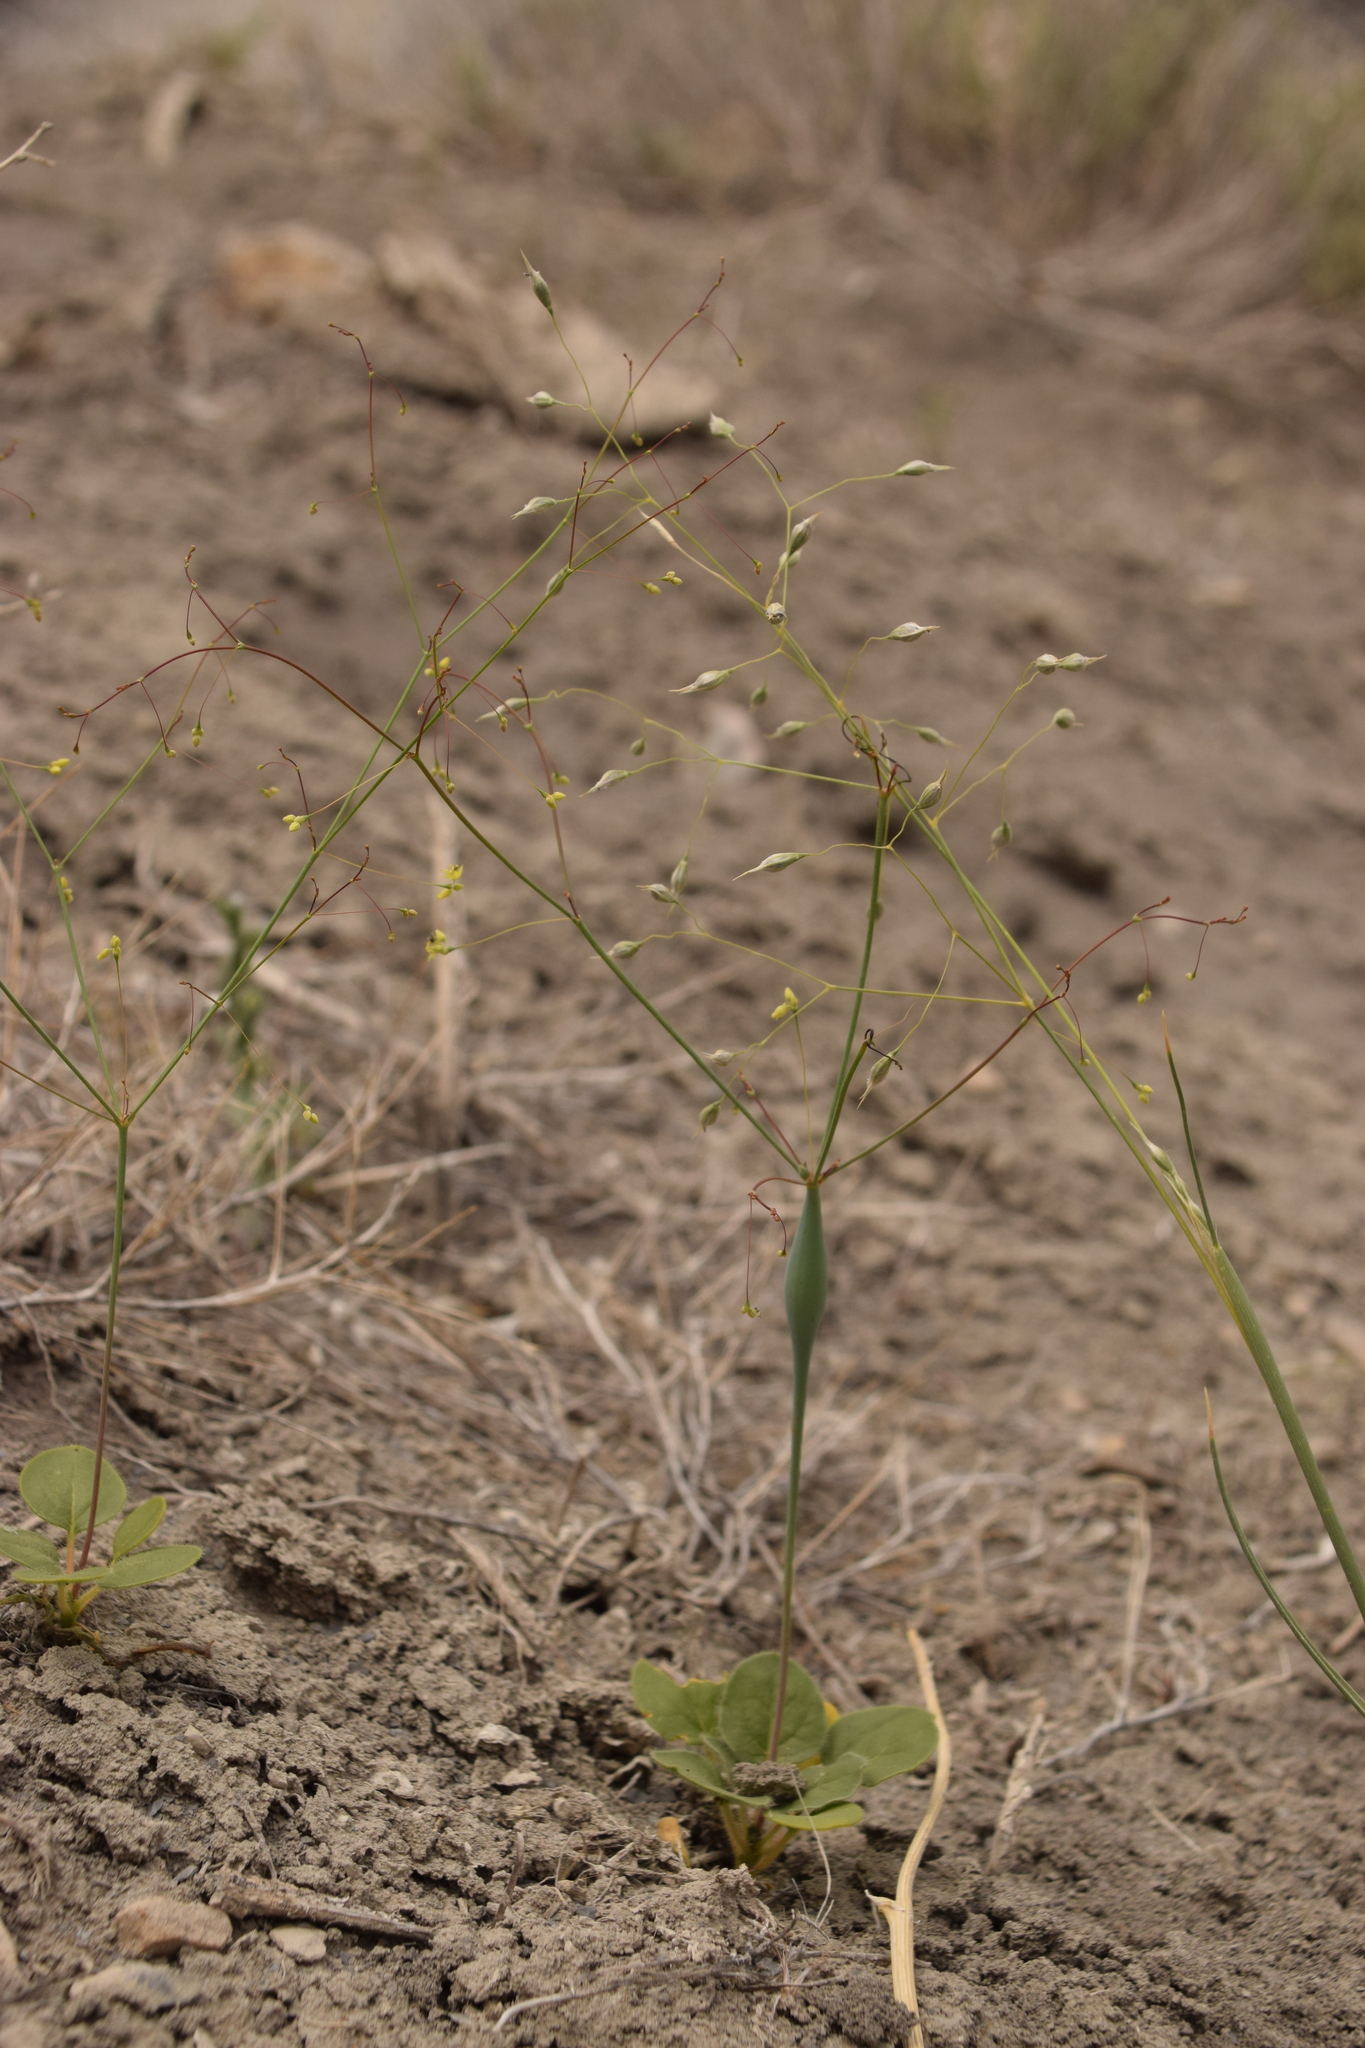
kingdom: Plantae
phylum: Tracheophyta
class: Magnoliopsida
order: Caryophyllales
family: Polygonaceae
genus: Eriogonum
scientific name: Eriogonum inflatum
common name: Desert trumpet
